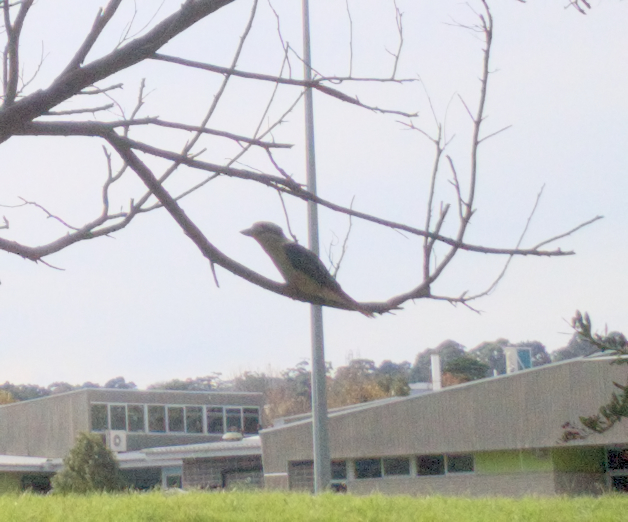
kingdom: Animalia
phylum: Chordata
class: Aves
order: Coraciiformes
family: Alcedinidae
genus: Dacelo
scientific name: Dacelo novaeguineae
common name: Laughing kookaburra
